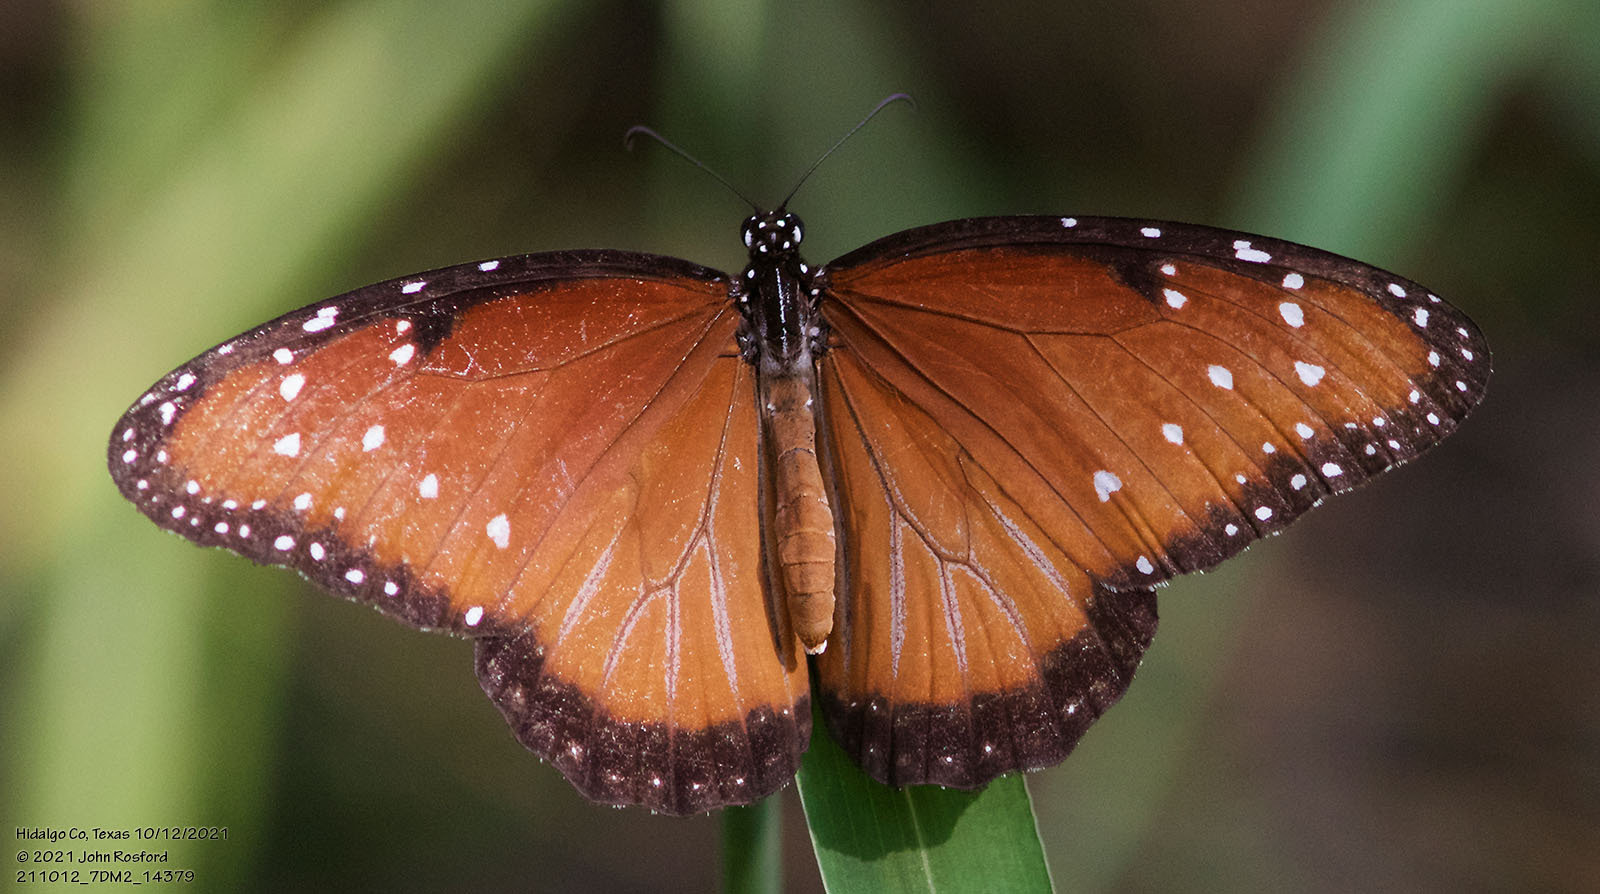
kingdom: Animalia
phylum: Arthropoda
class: Insecta
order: Lepidoptera
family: Nymphalidae
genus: Danaus
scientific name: Danaus gilippus
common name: Queen
